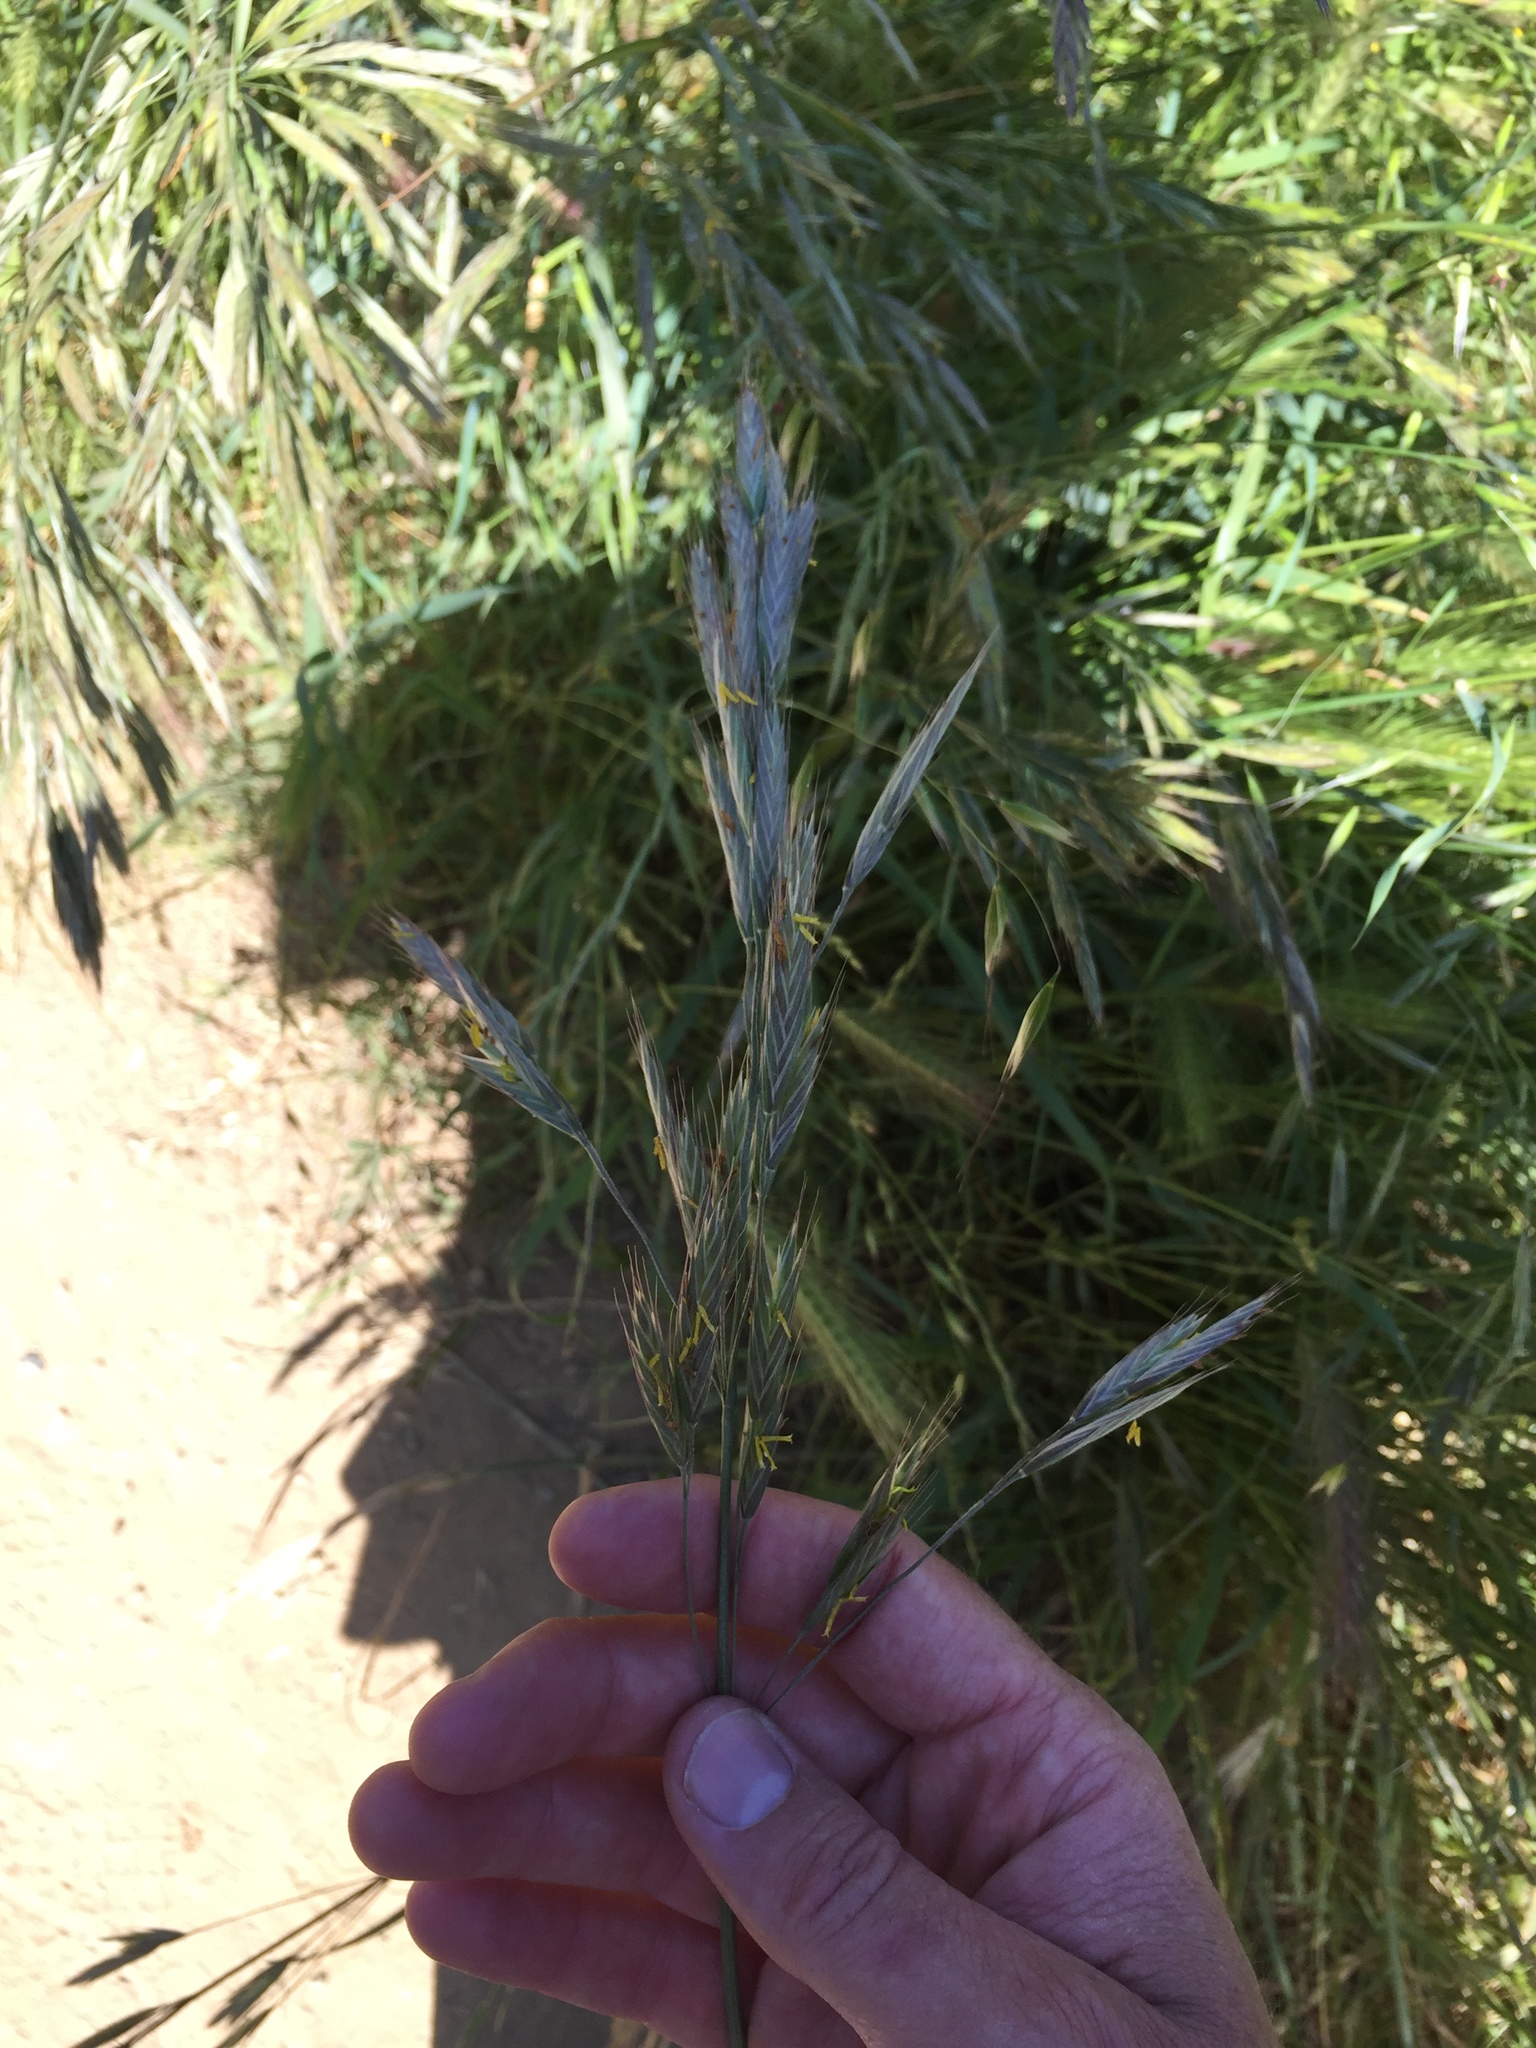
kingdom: Plantae
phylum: Tracheophyta
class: Liliopsida
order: Poales
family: Poaceae
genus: Bromus
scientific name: Bromus carinatus
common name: Mountain brome
